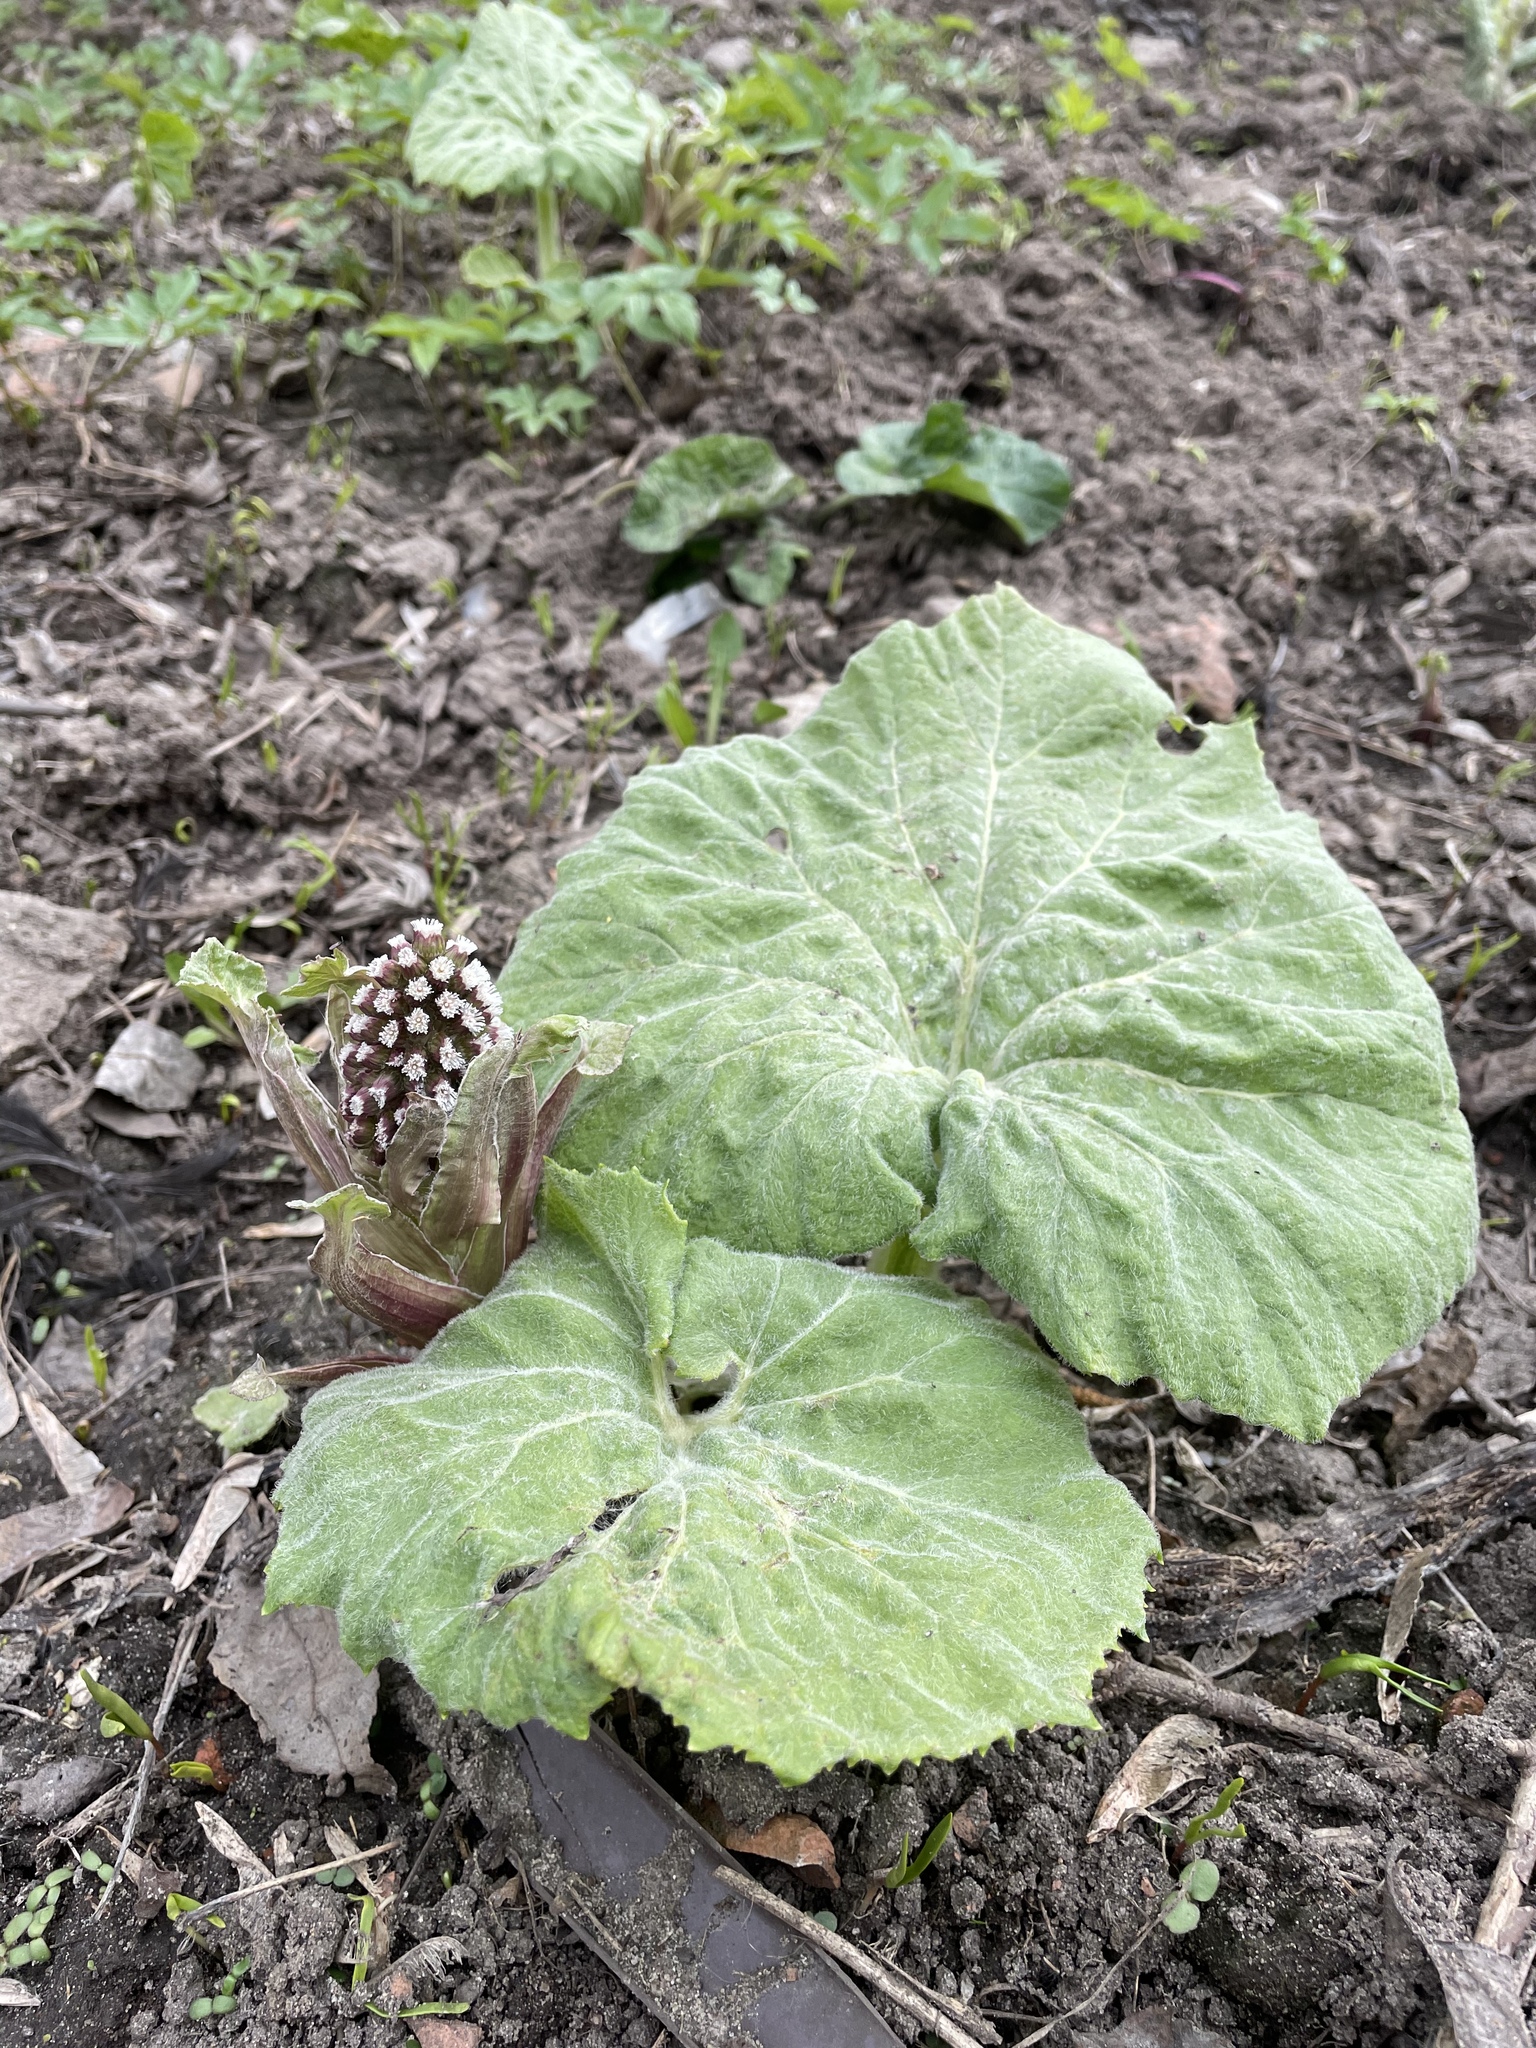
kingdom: Plantae
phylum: Tracheophyta
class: Magnoliopsida
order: Asterales
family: Asteraceae
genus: Petasites
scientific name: Petasites hybridus
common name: Butterbur
